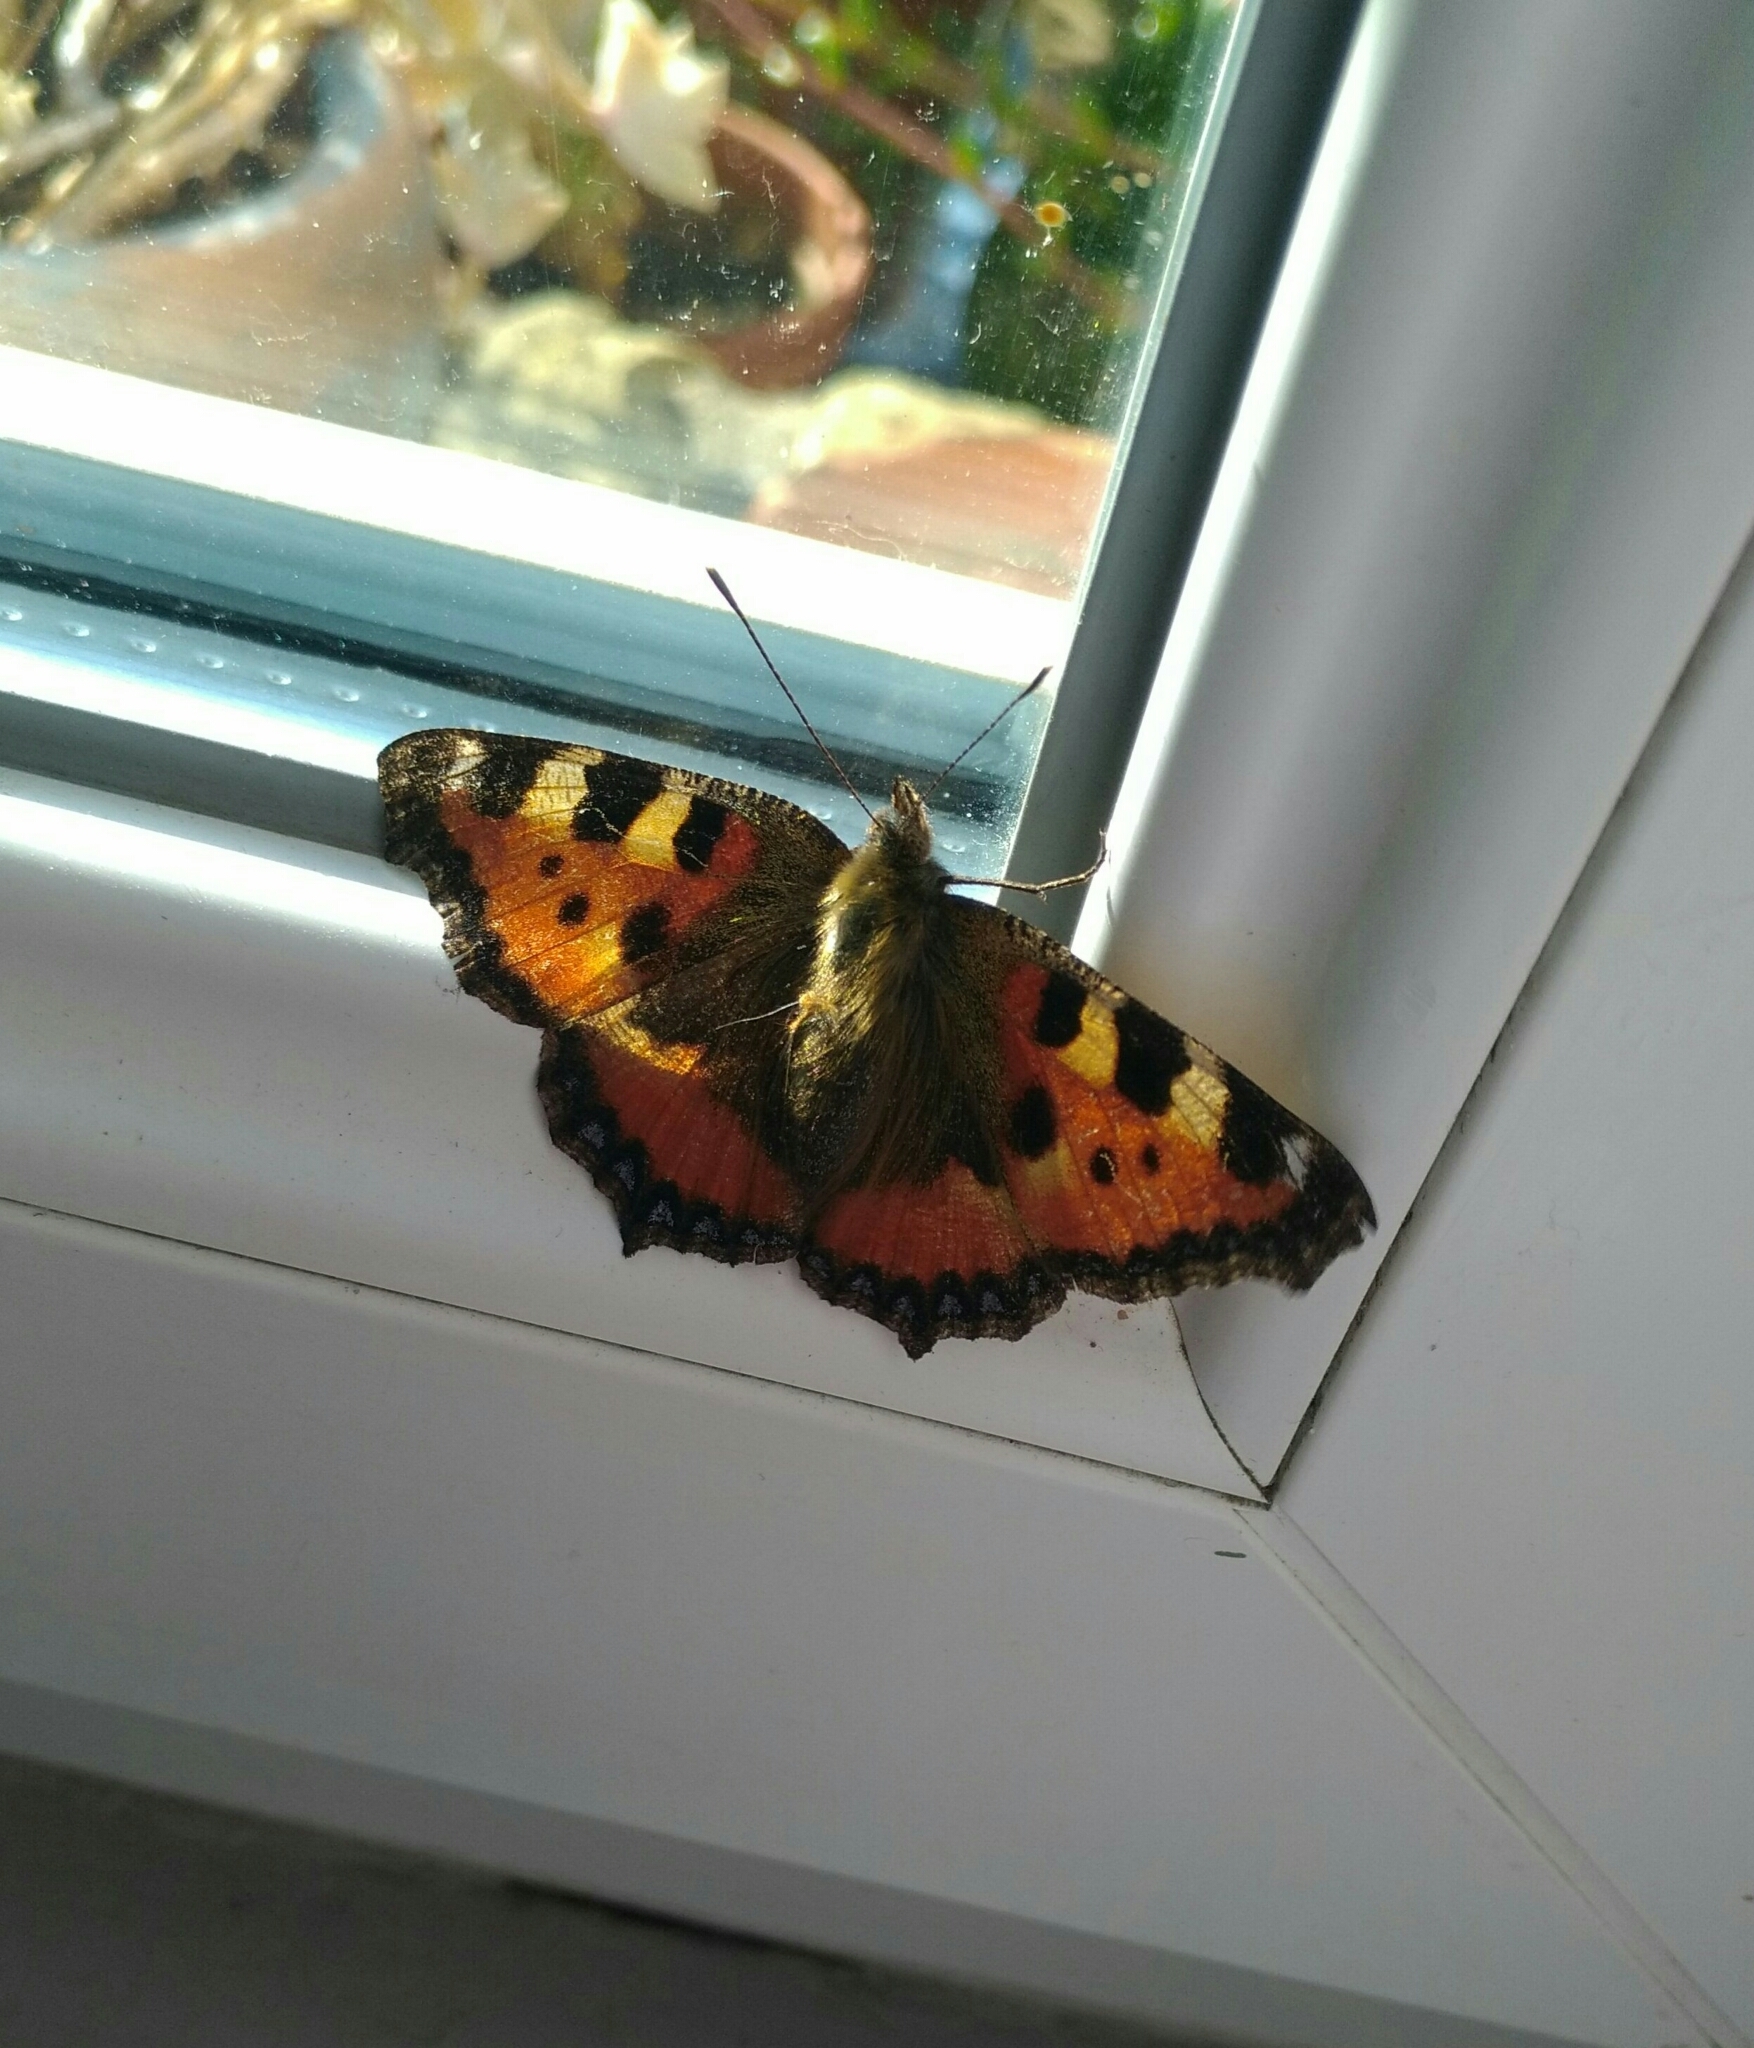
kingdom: Animalia
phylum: Arthropoda
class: Insecta
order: Lepidoptera
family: Nymphalidae
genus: Aglais
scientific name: Aglais urticae
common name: Small tortoiseshell
